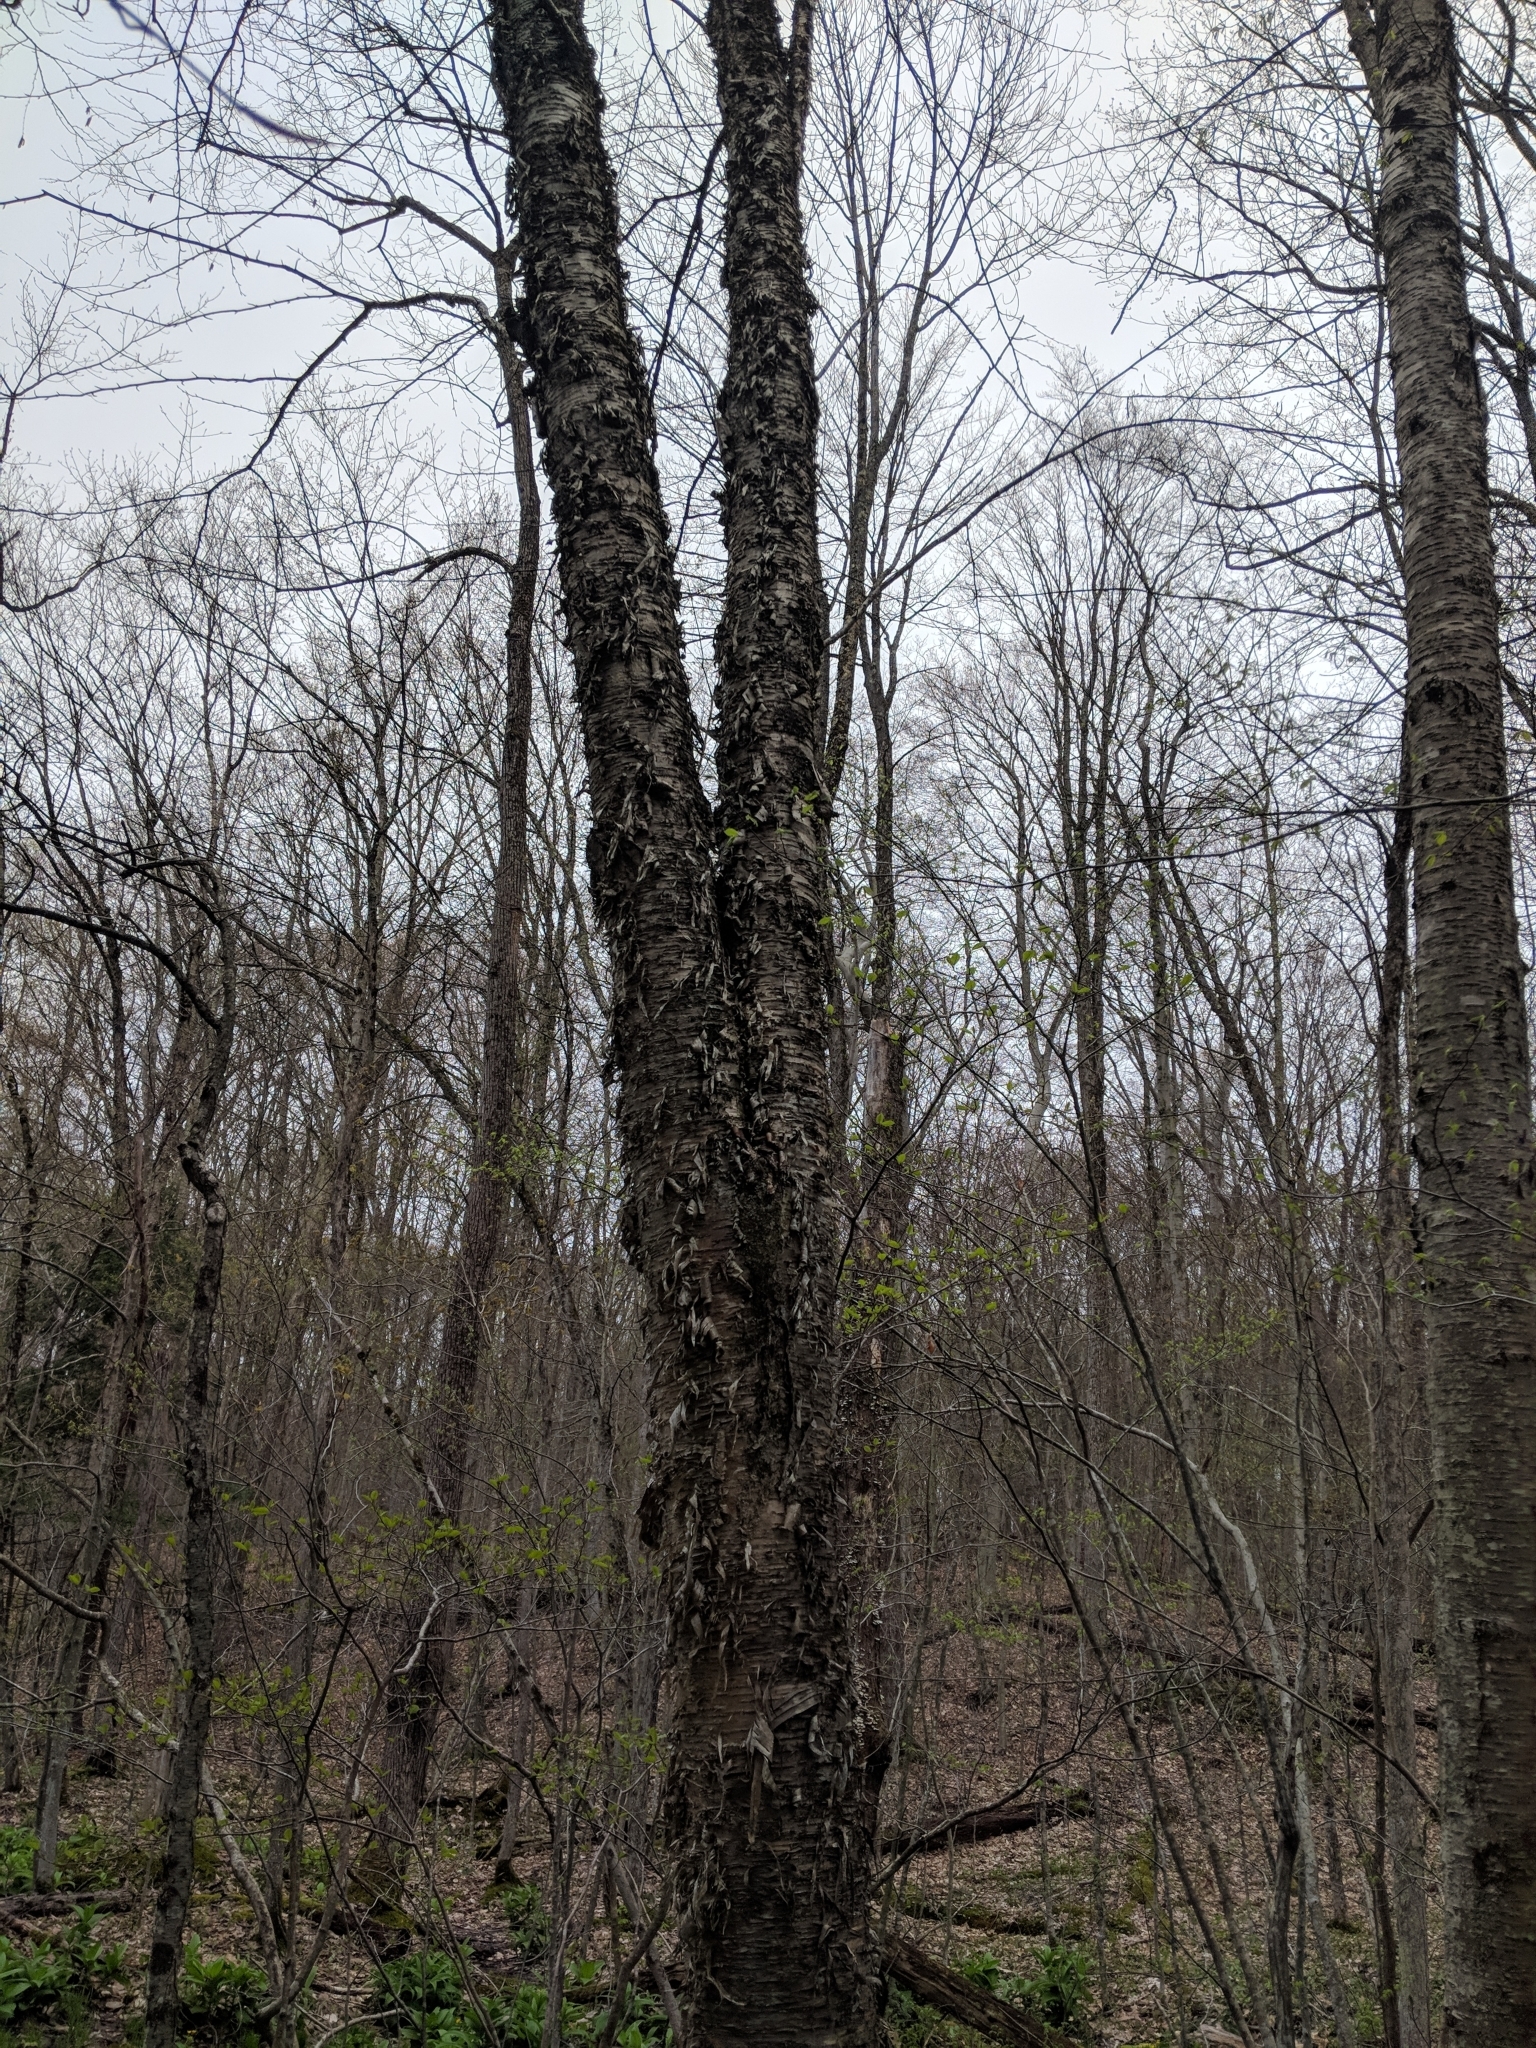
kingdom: Plantae
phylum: Tracheophyta
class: Magnoliopsida
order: Fagales
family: Betulaceae
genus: Betula
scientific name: Betula alleghaniensis
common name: Yellow birch
